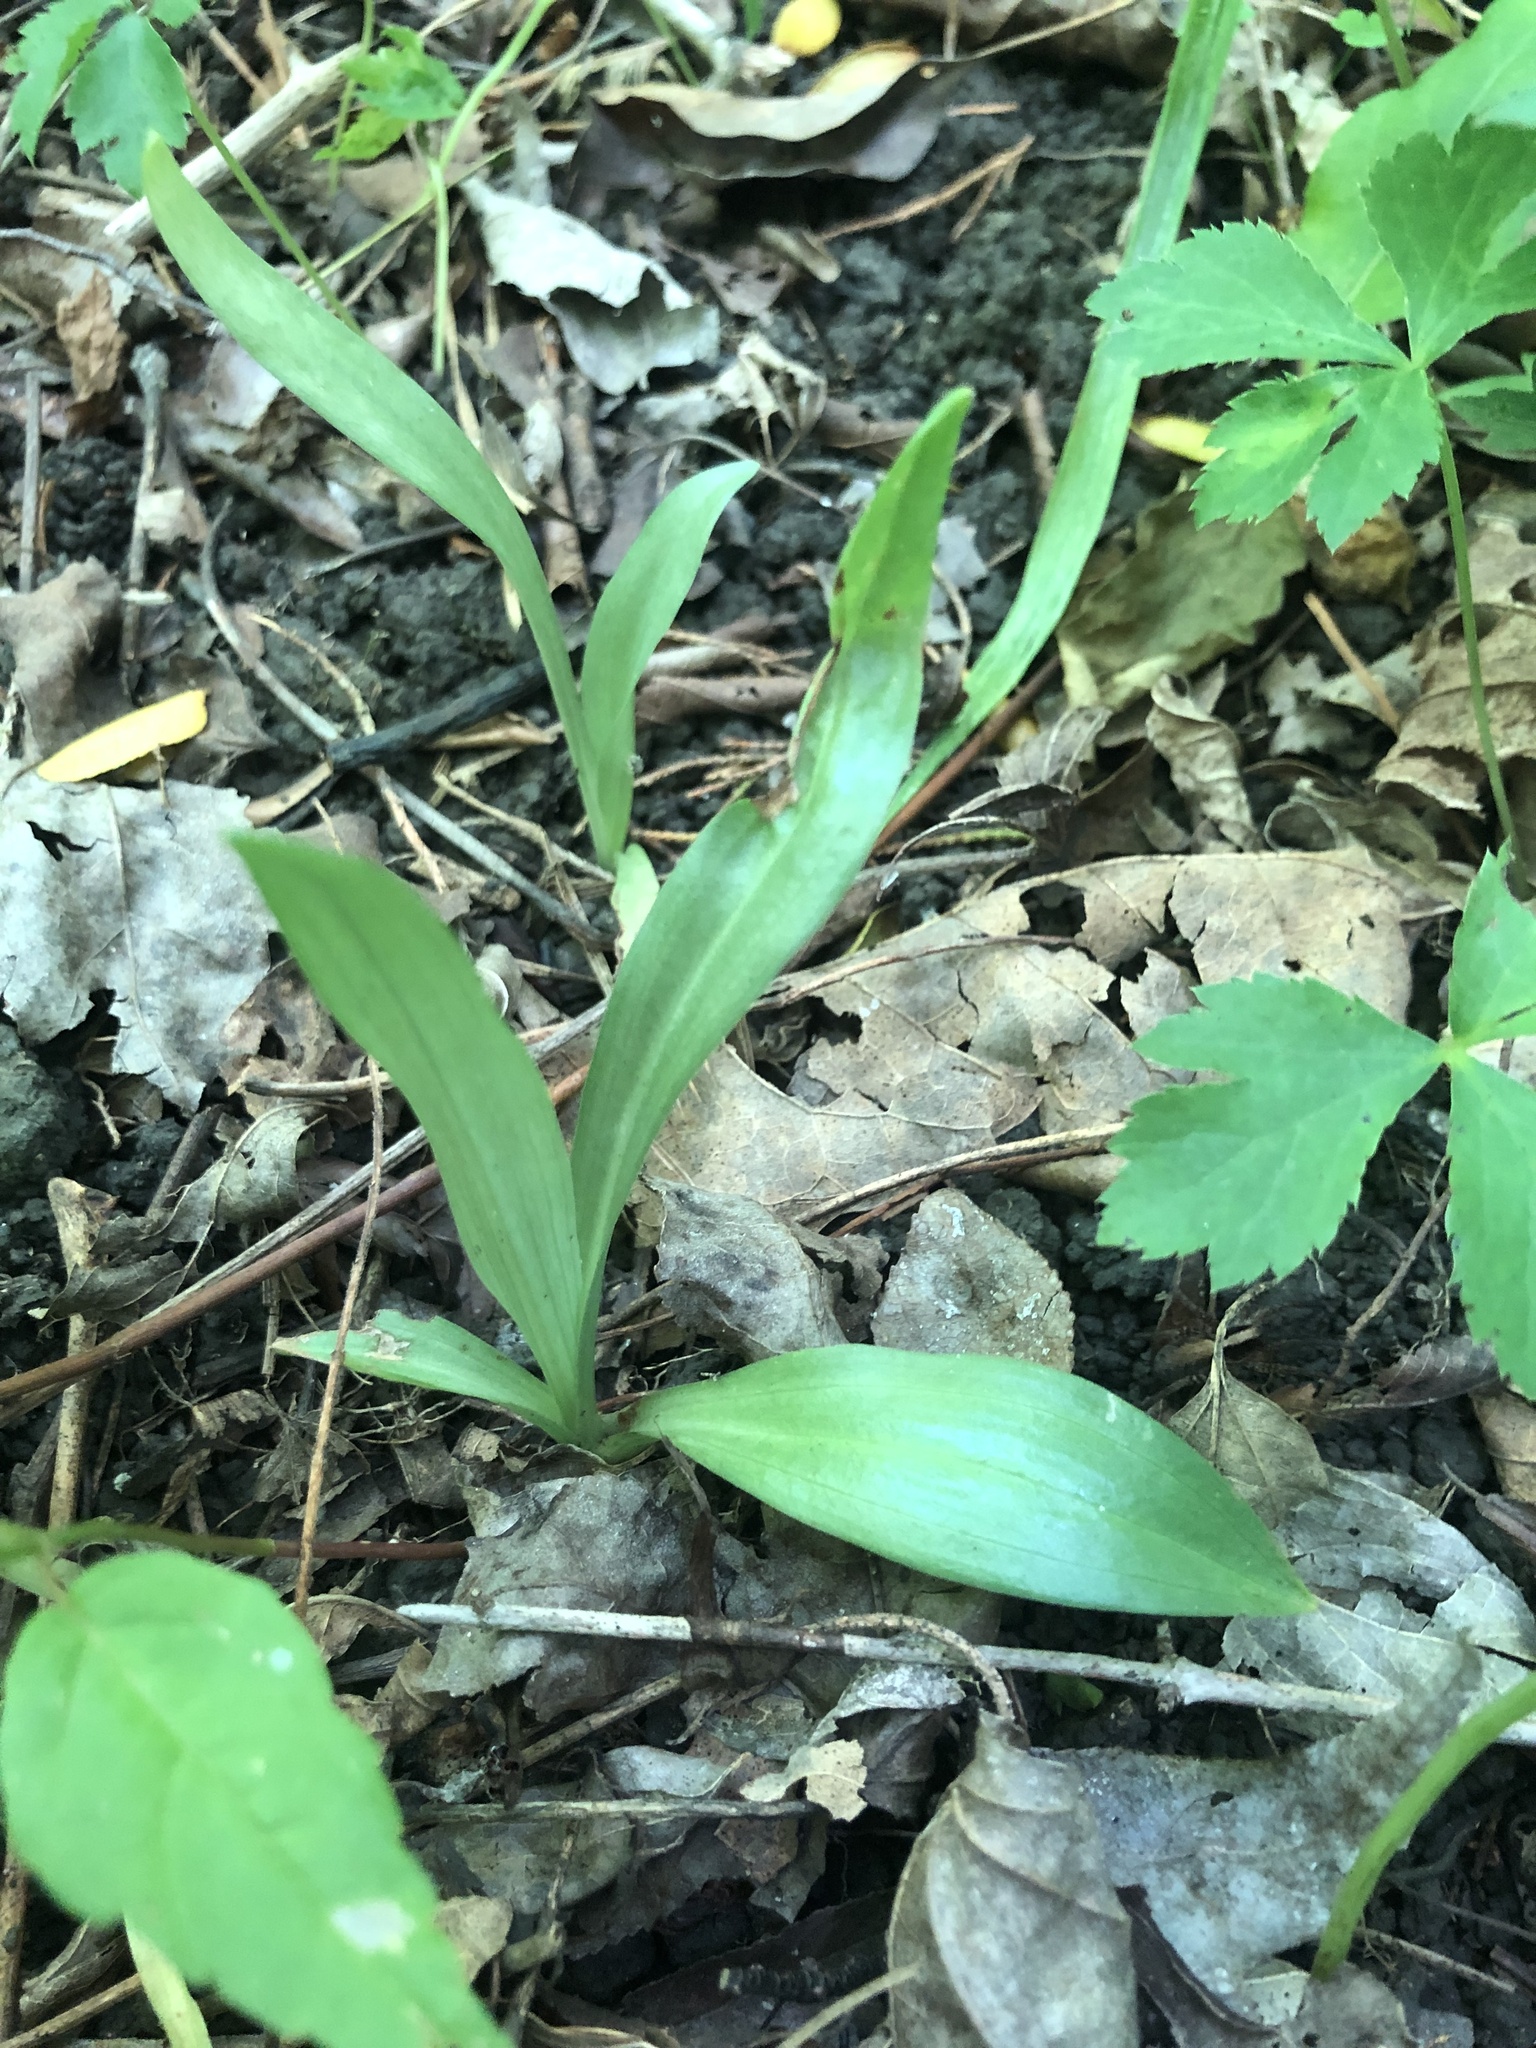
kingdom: Plantae
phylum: Tracheophyta
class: Liliopsida
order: Asparagales
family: Orchidaceae
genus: Spiranthes
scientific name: Spiranthes ovalis
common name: October ladies'-tresses
